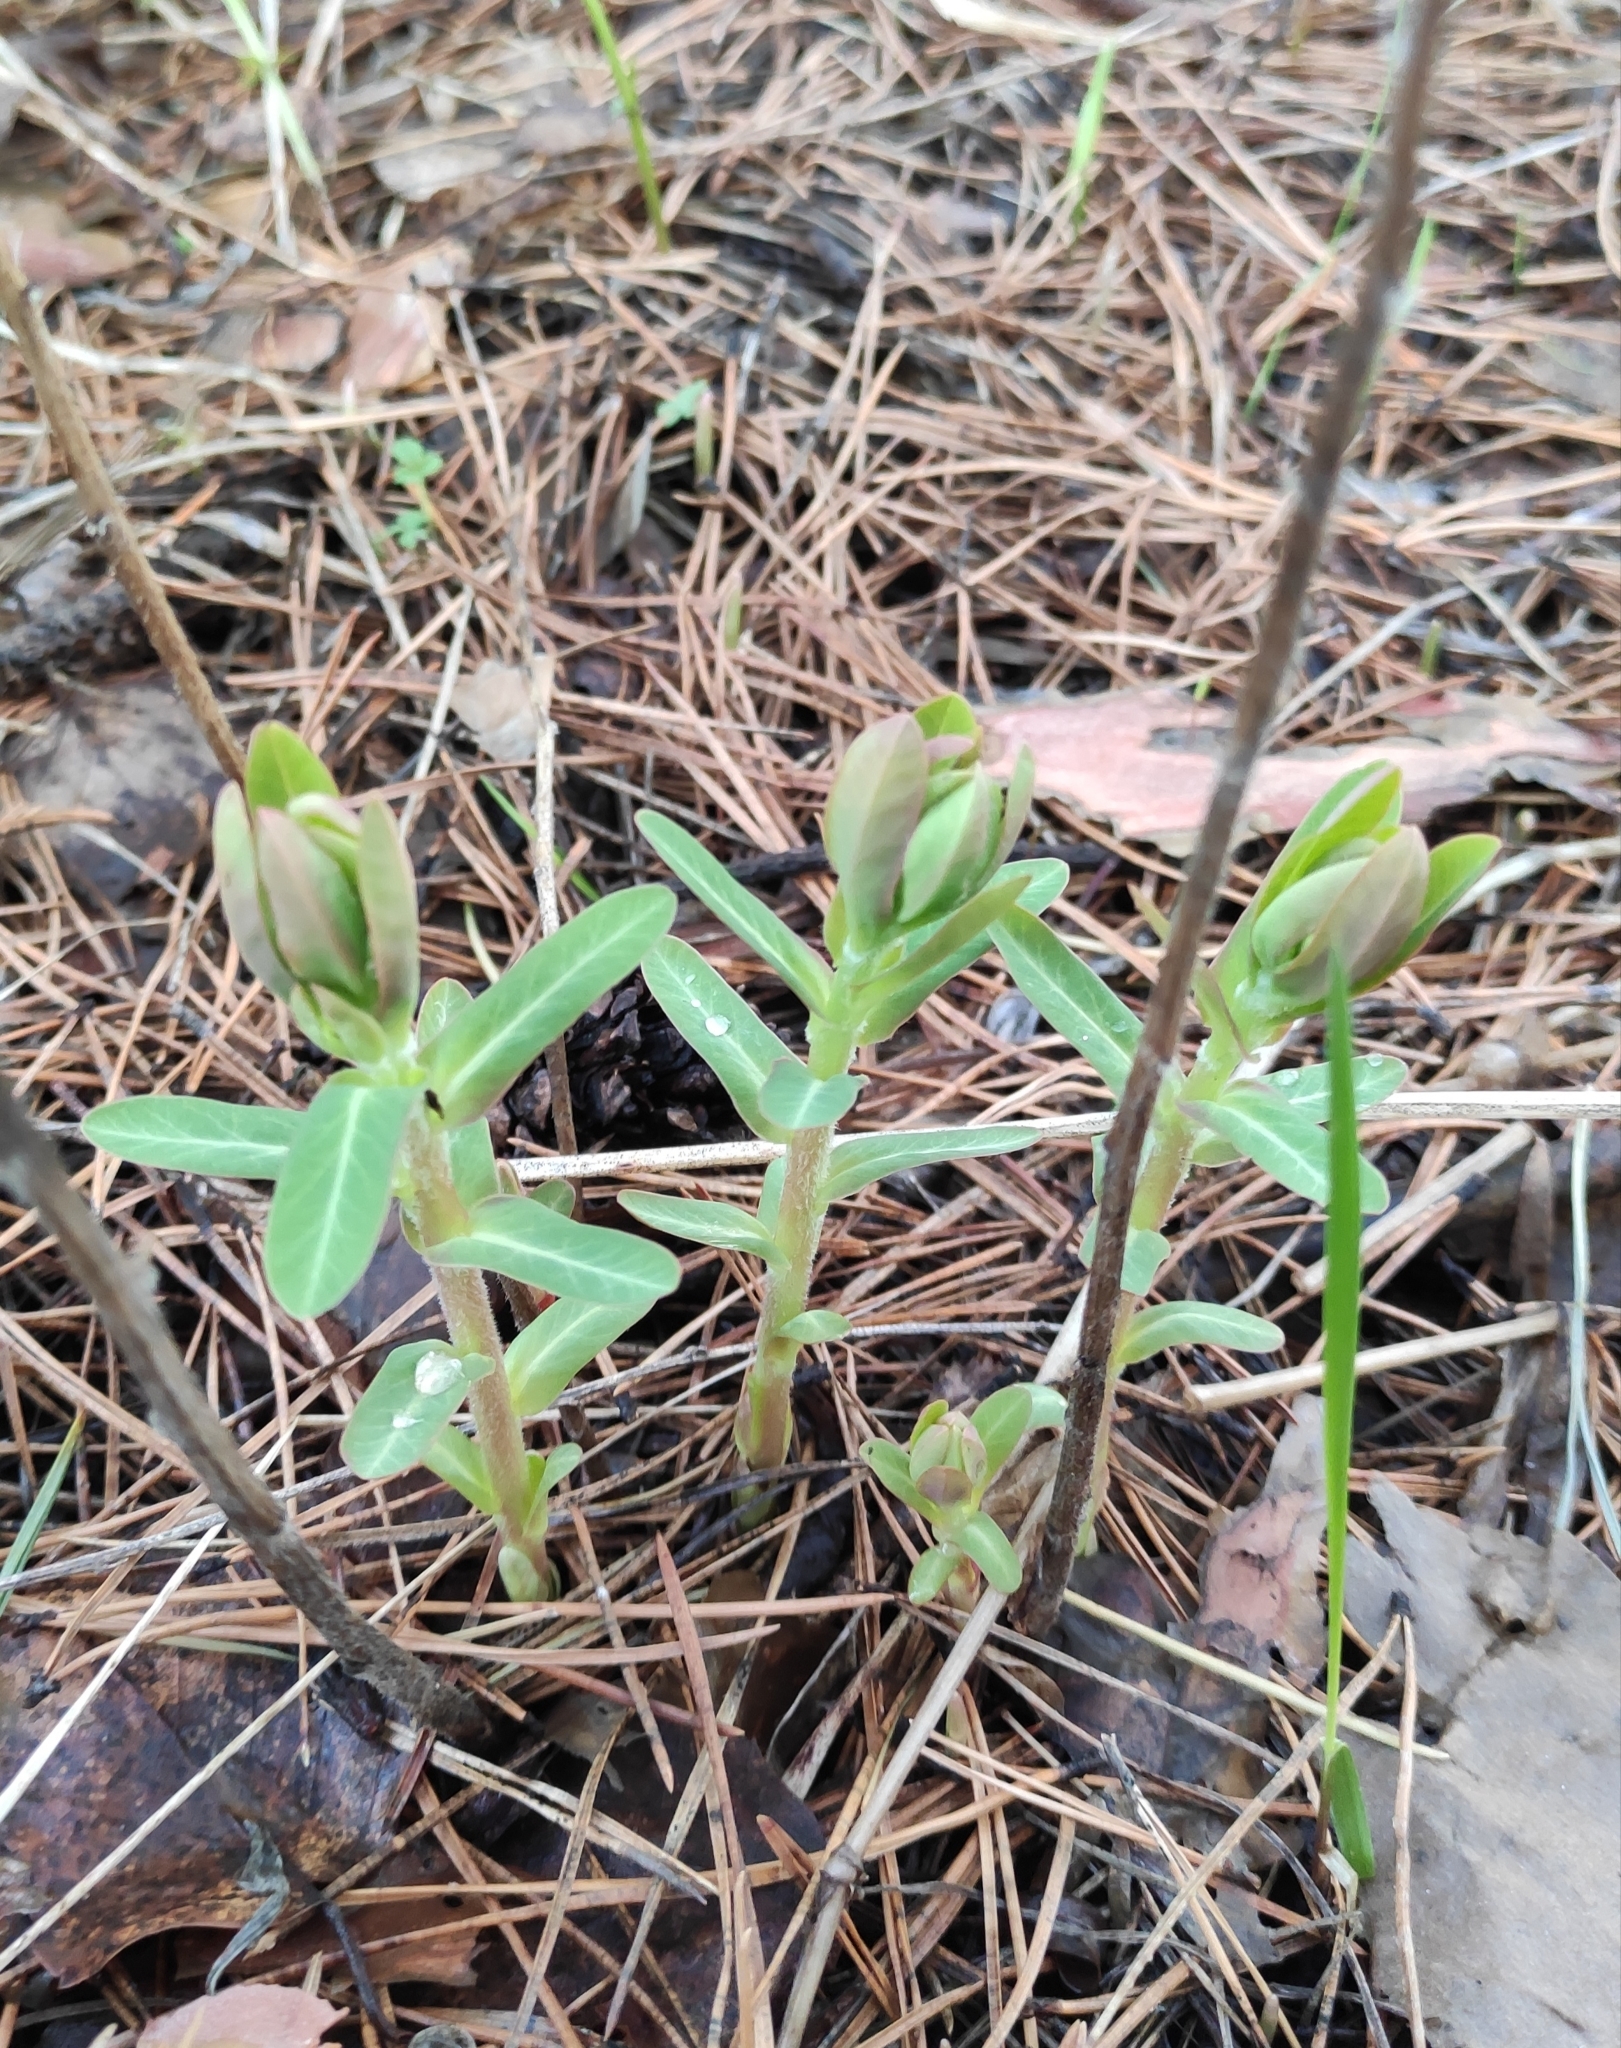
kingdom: Plantae
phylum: Tracheophyta
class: Magnoliopsida
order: Malpighiales
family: Euphorbiaceae
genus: Euphorbia
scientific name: Euphorbia jenisseiensis
